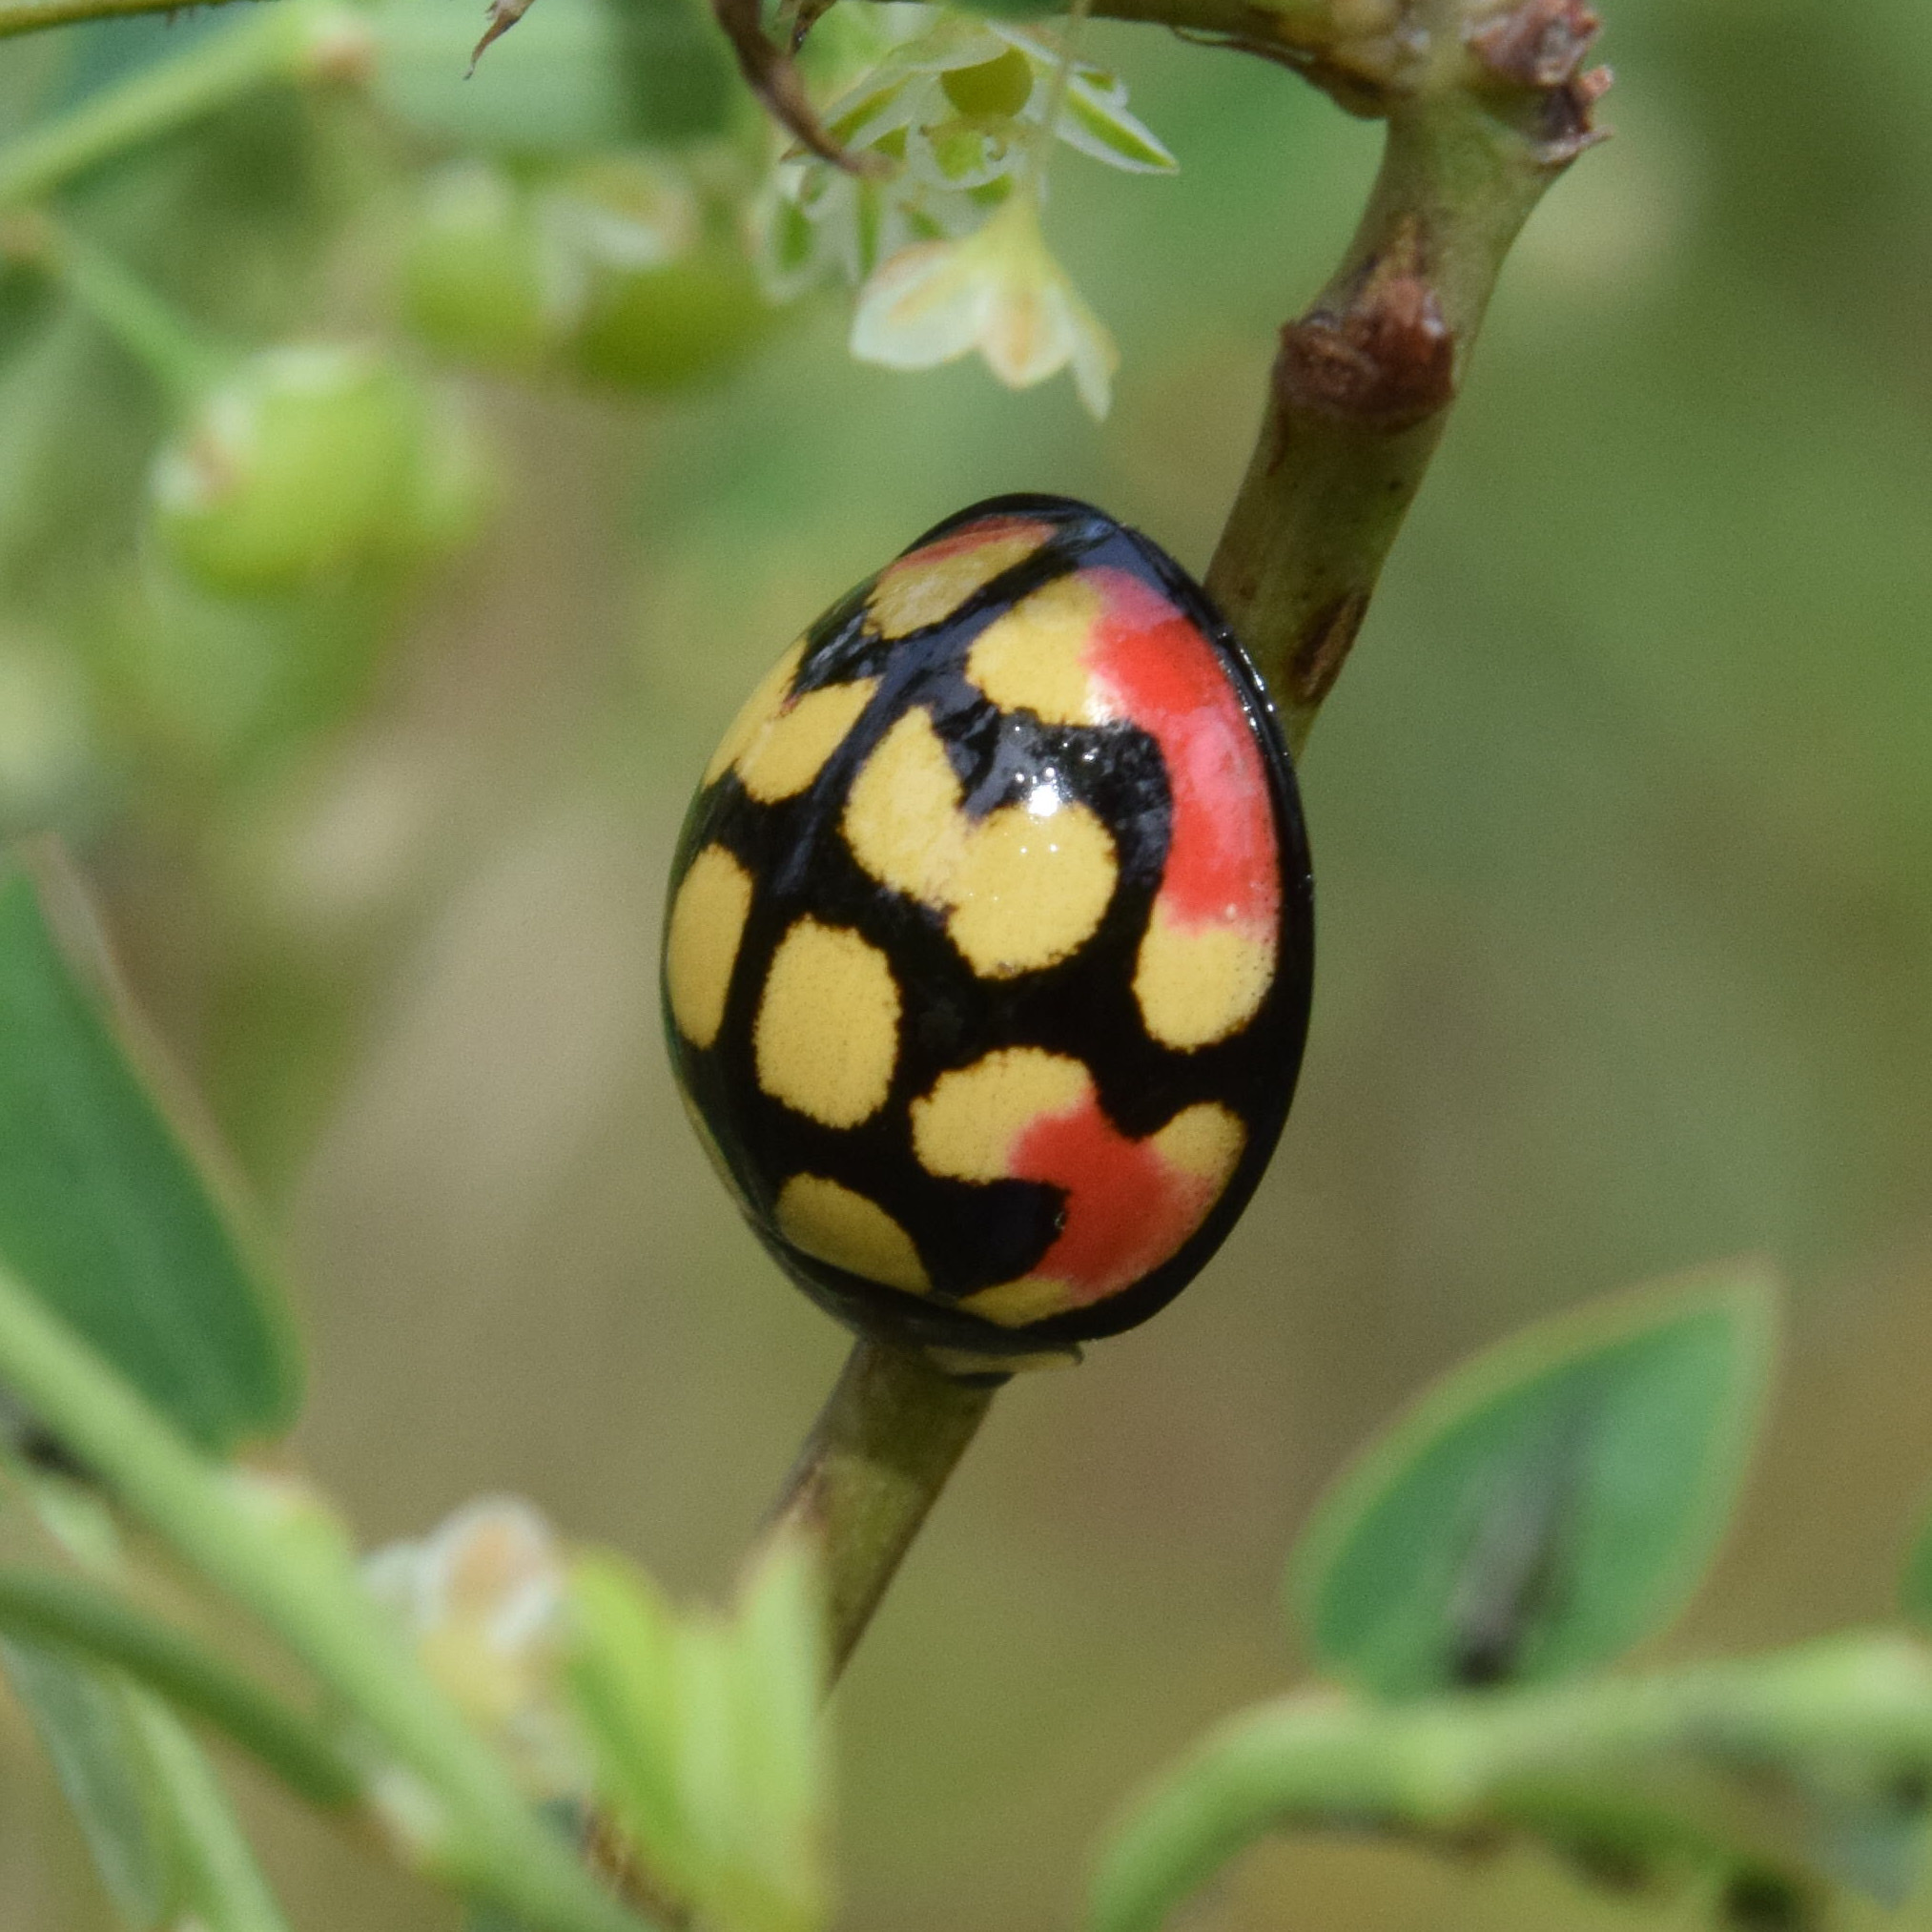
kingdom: Animalia
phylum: Arthropoda
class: Insecta
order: Coleoptera
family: Coccinellidae
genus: Cheilomenes
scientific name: Cheilomenes sulphurea
